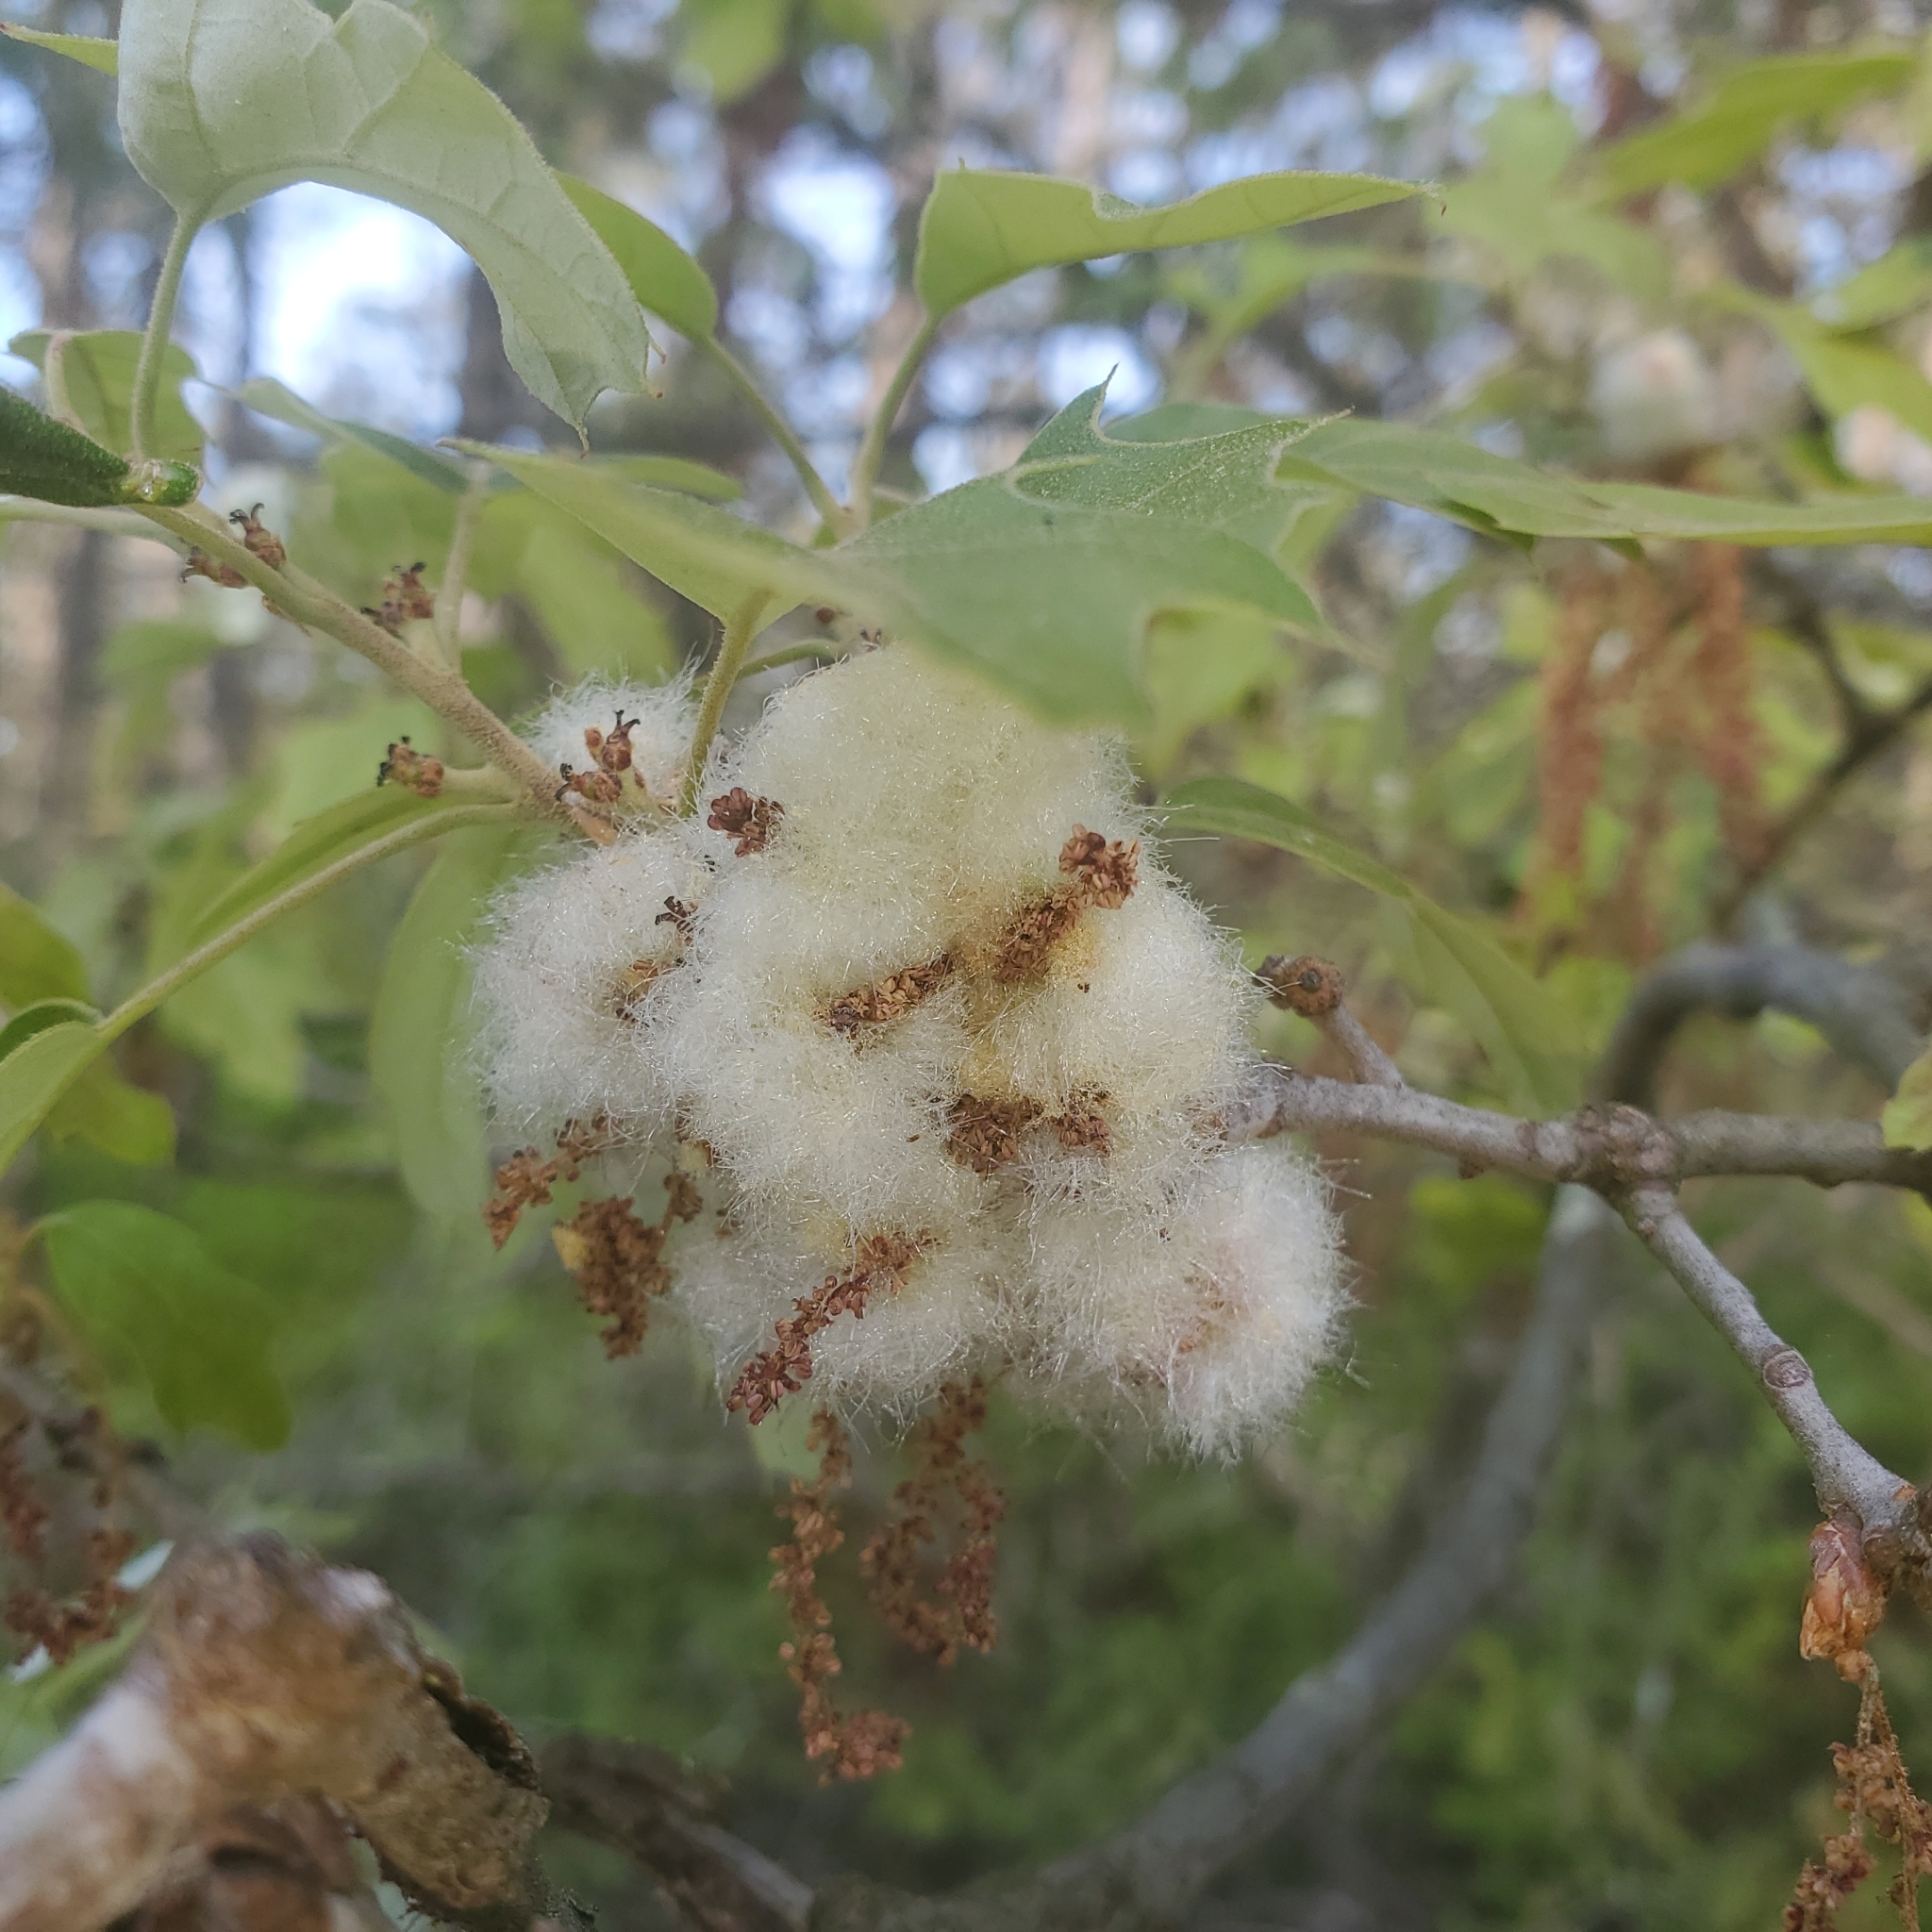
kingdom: Animalia
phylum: Arthropoda
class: Insecta
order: Hymenoptera
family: Cynipidae
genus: Callirhytis
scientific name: Callirhytis
